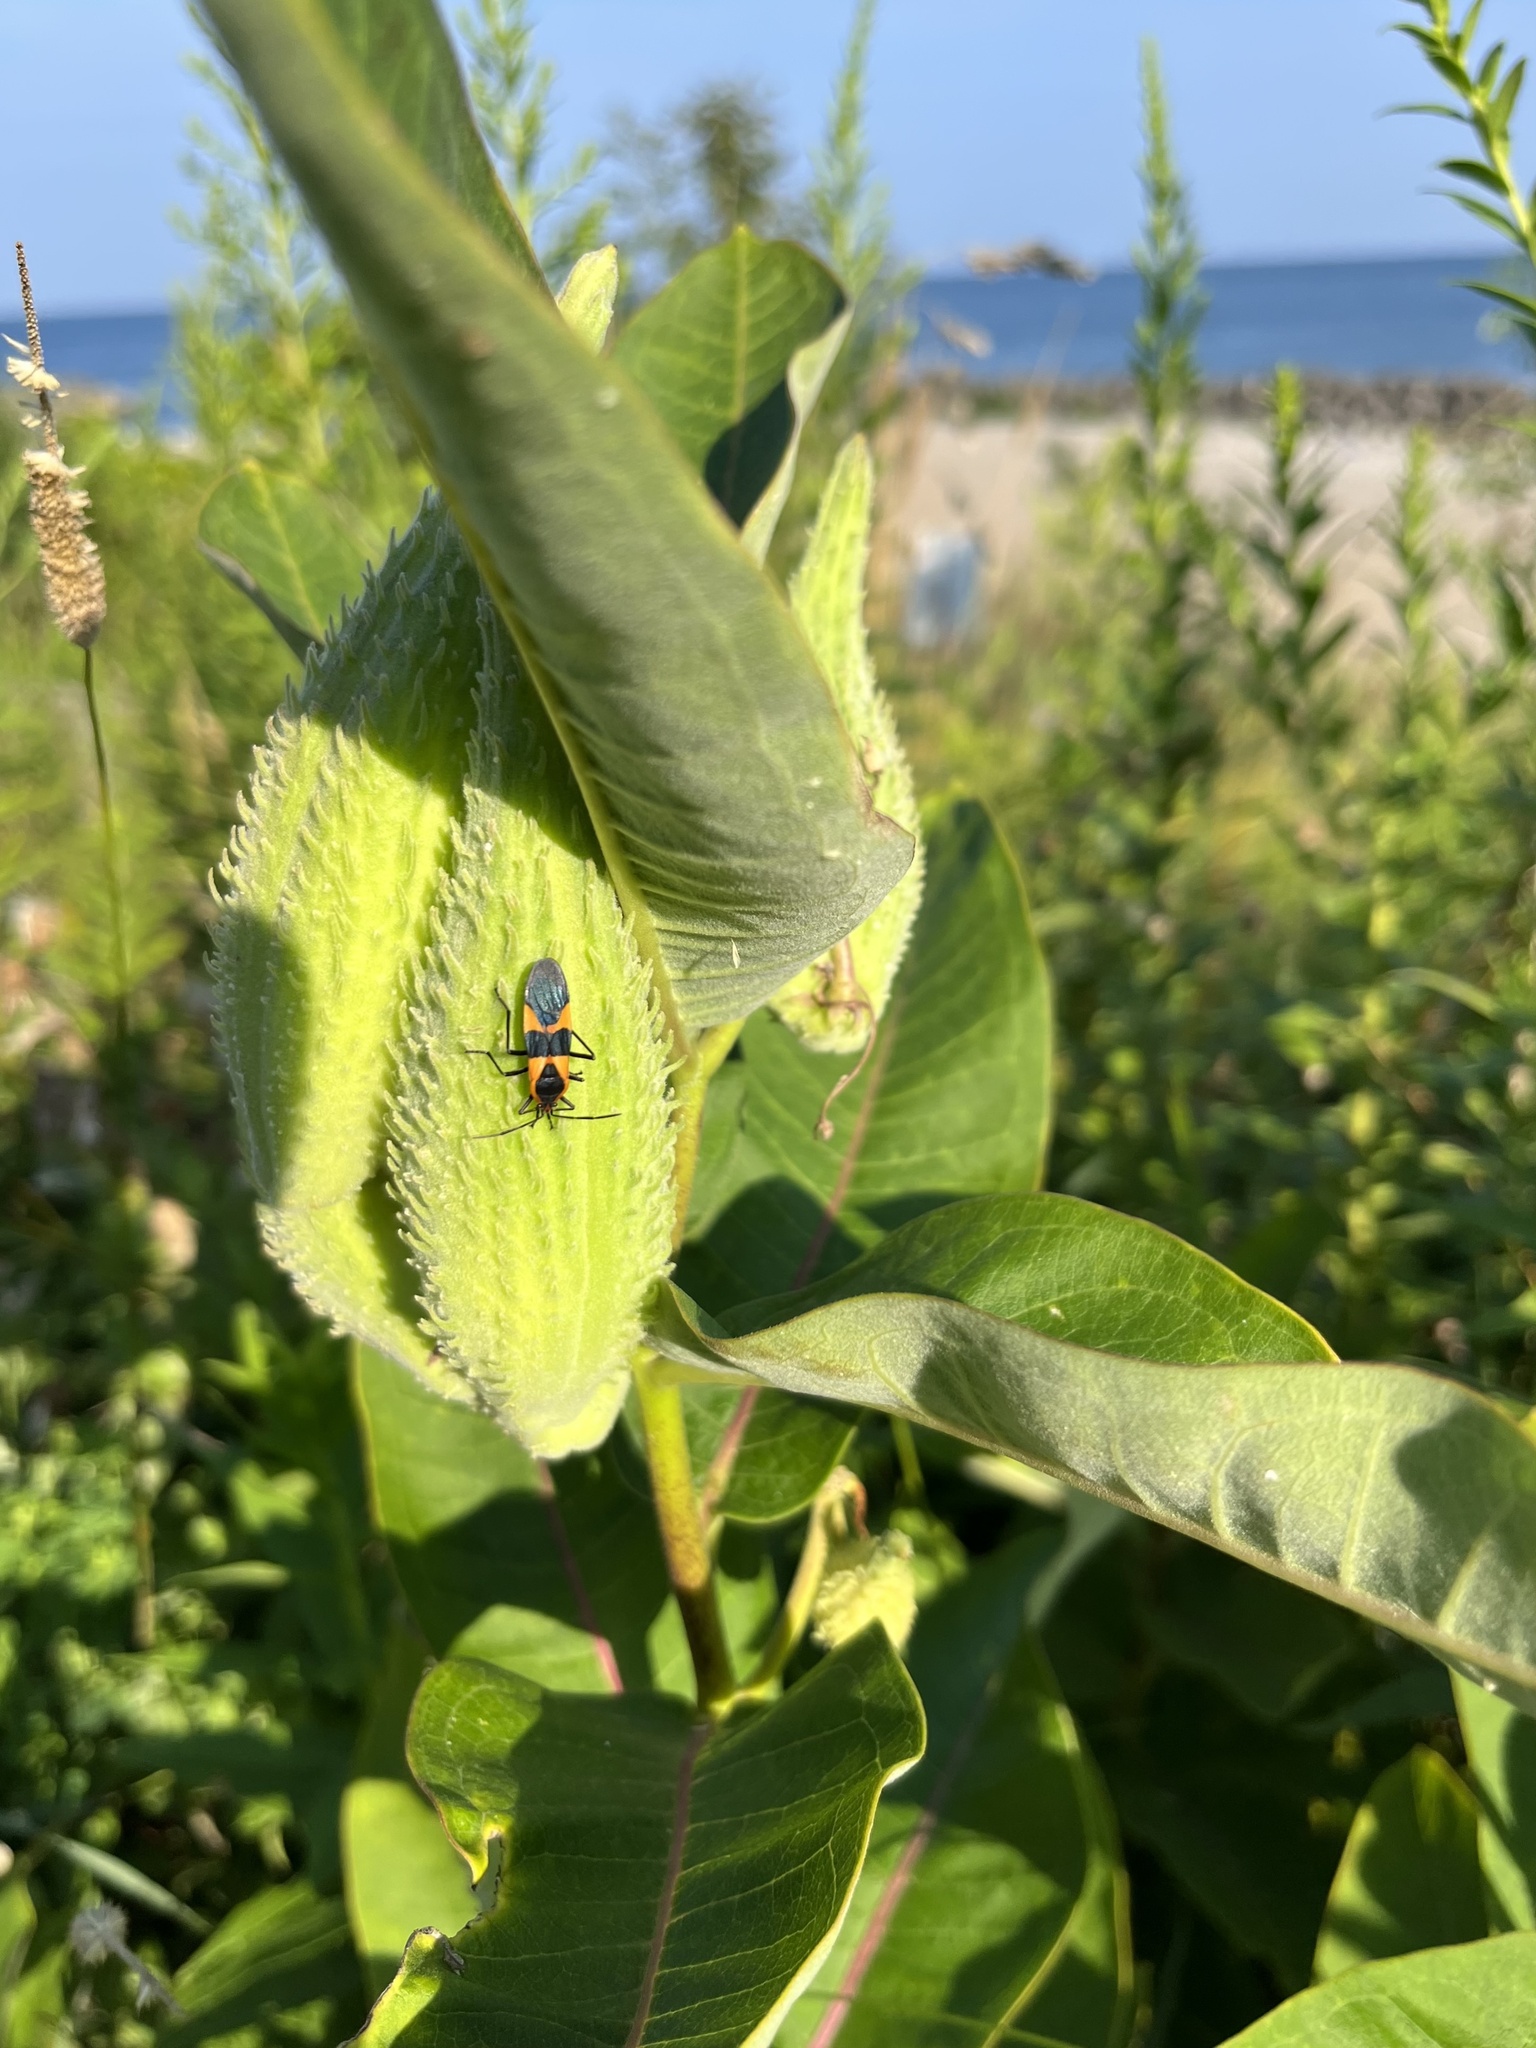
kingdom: Animalia
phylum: Arthropoda
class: Insecta
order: Hemiptera
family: Lygaeidae
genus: Oncopeltus
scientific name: Oncopeltus fasciatus
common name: Large milkweed bug
